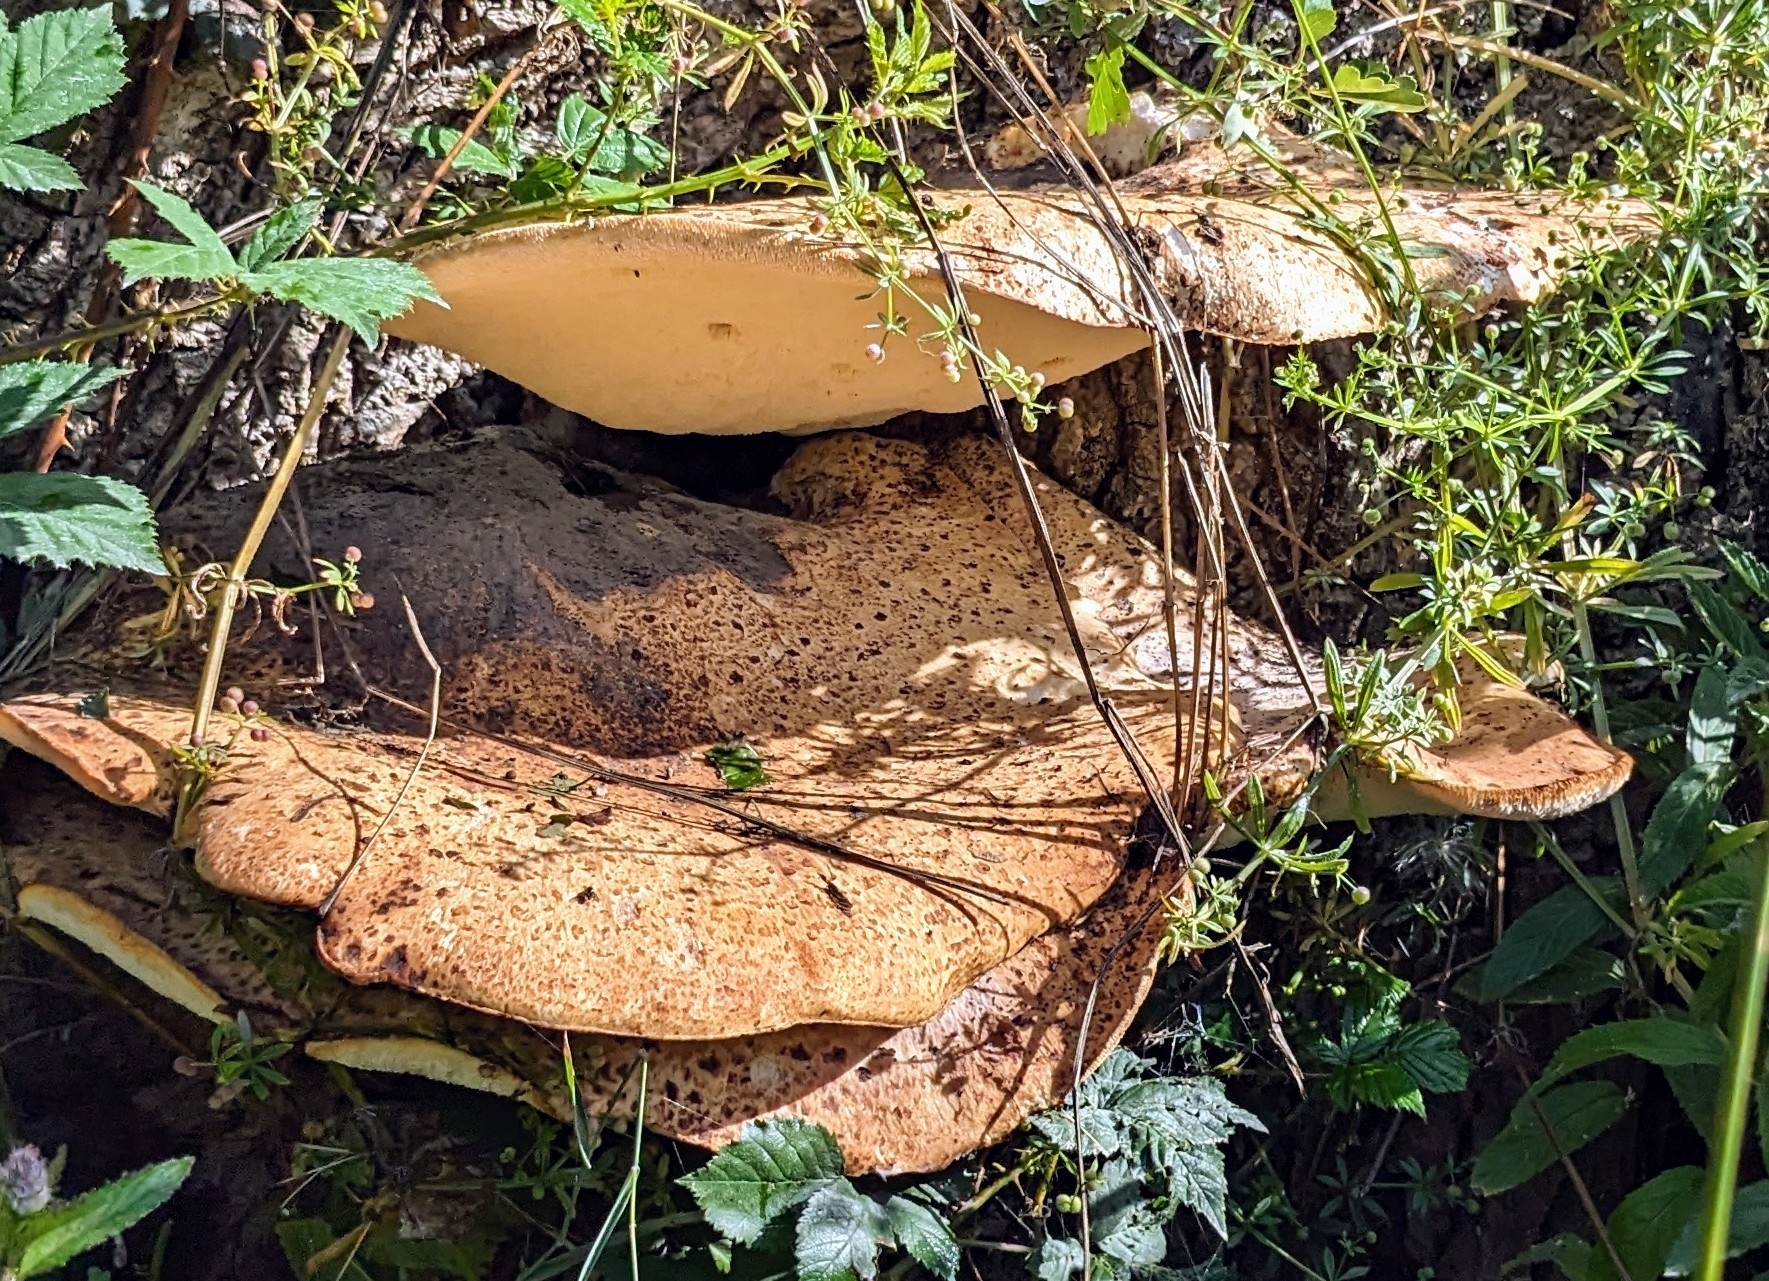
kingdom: Fungi
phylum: Basidiomycota
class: Agaricomycetes
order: Polyporales
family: Polyporaceae
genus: Cerioporus
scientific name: Cerioporus squamosus
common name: Dryad's saddle
